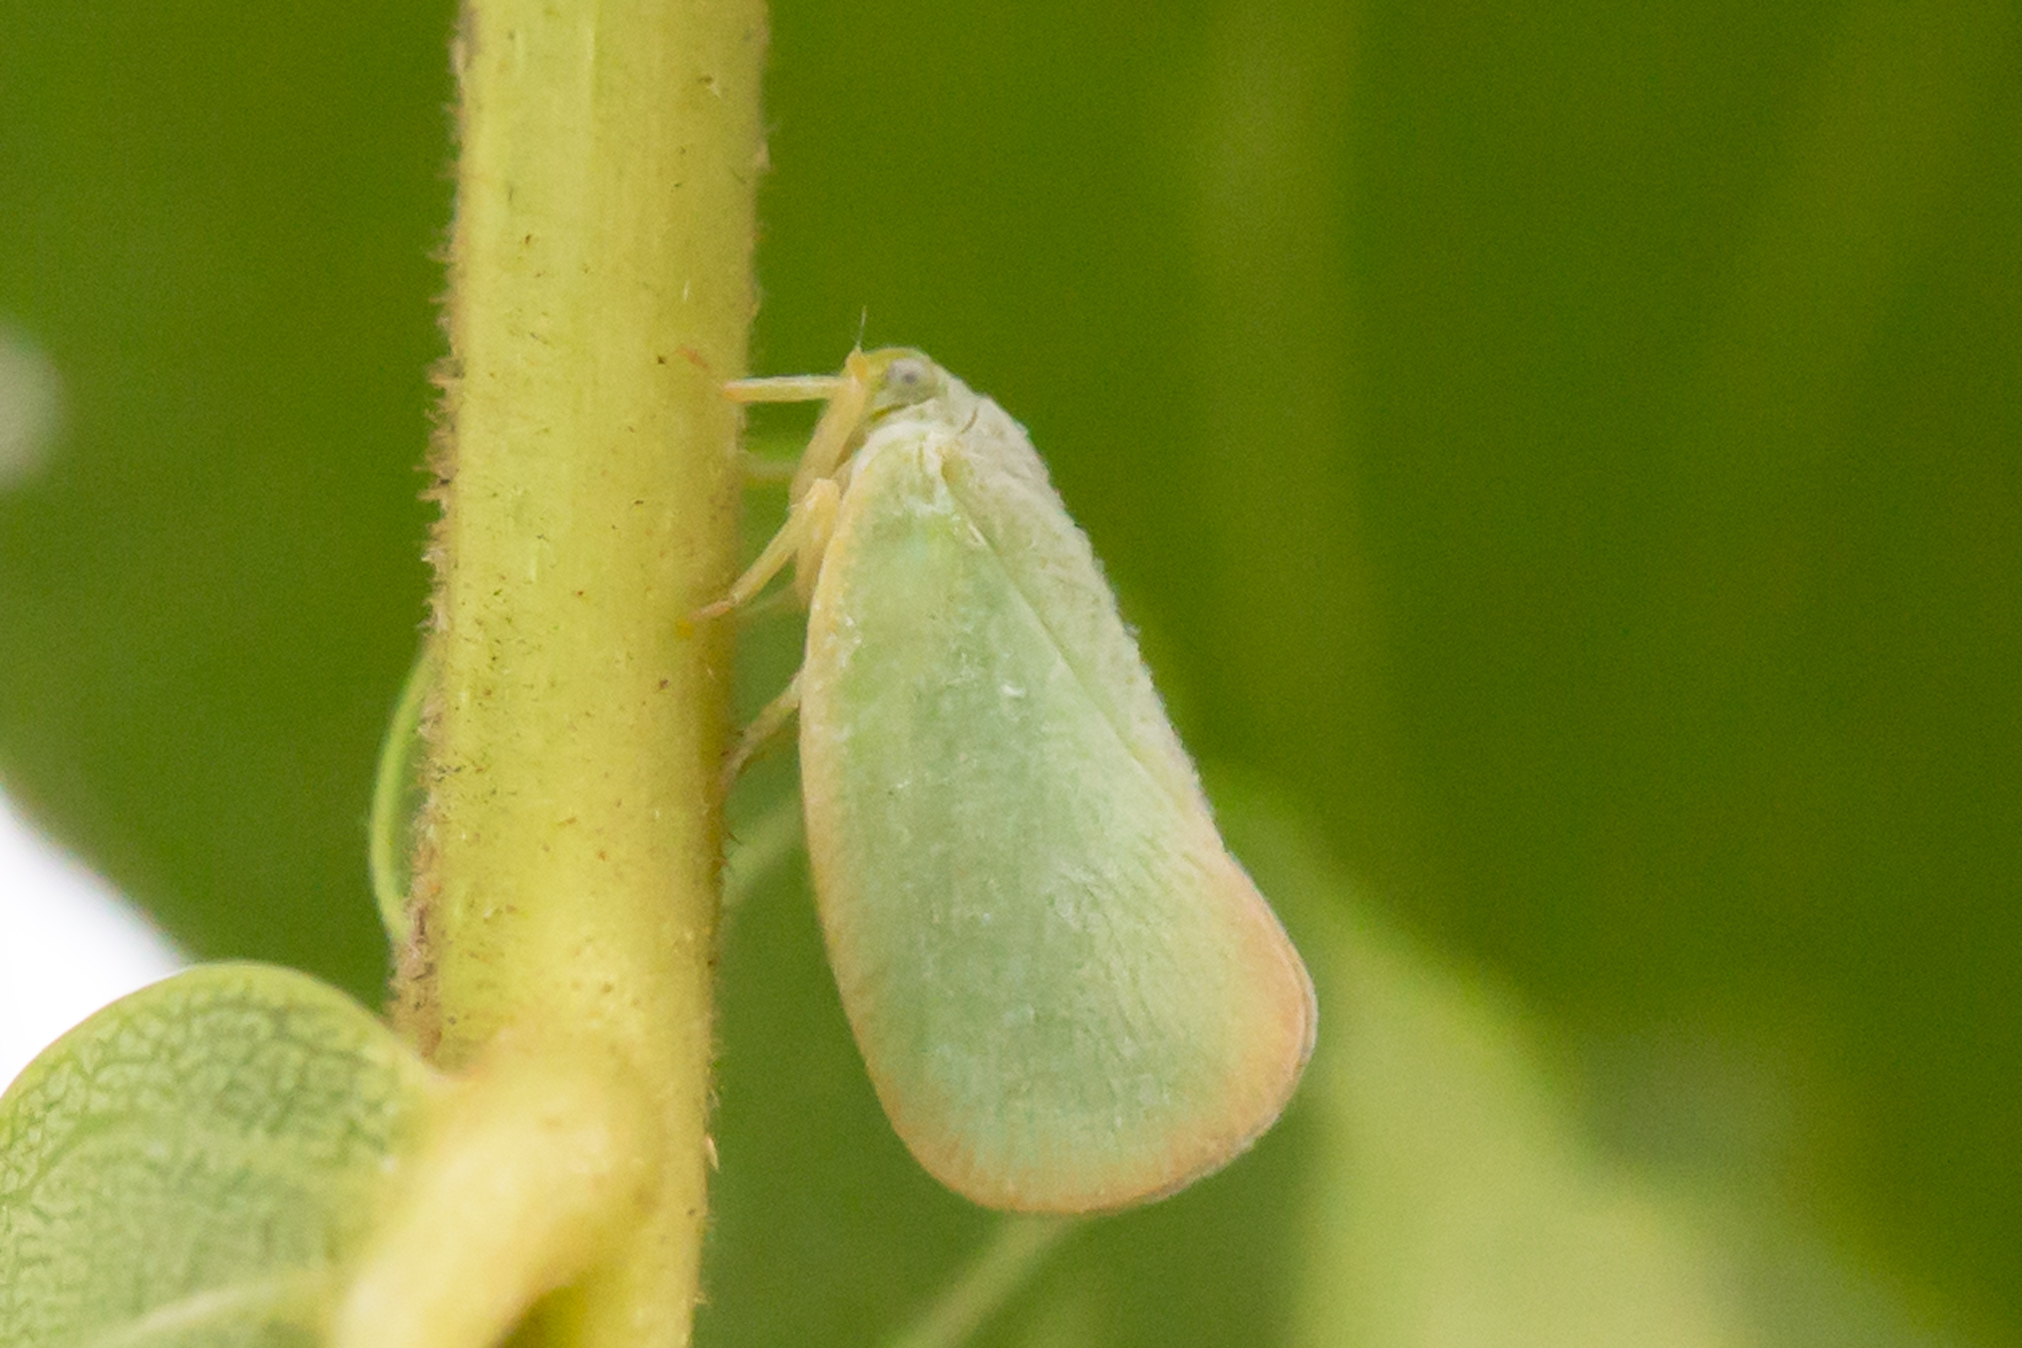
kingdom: Animalia
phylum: Arthropoda
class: Insecta
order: Hemiptera
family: Flatidae
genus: Ormenoides
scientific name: Ormenoides venusta
